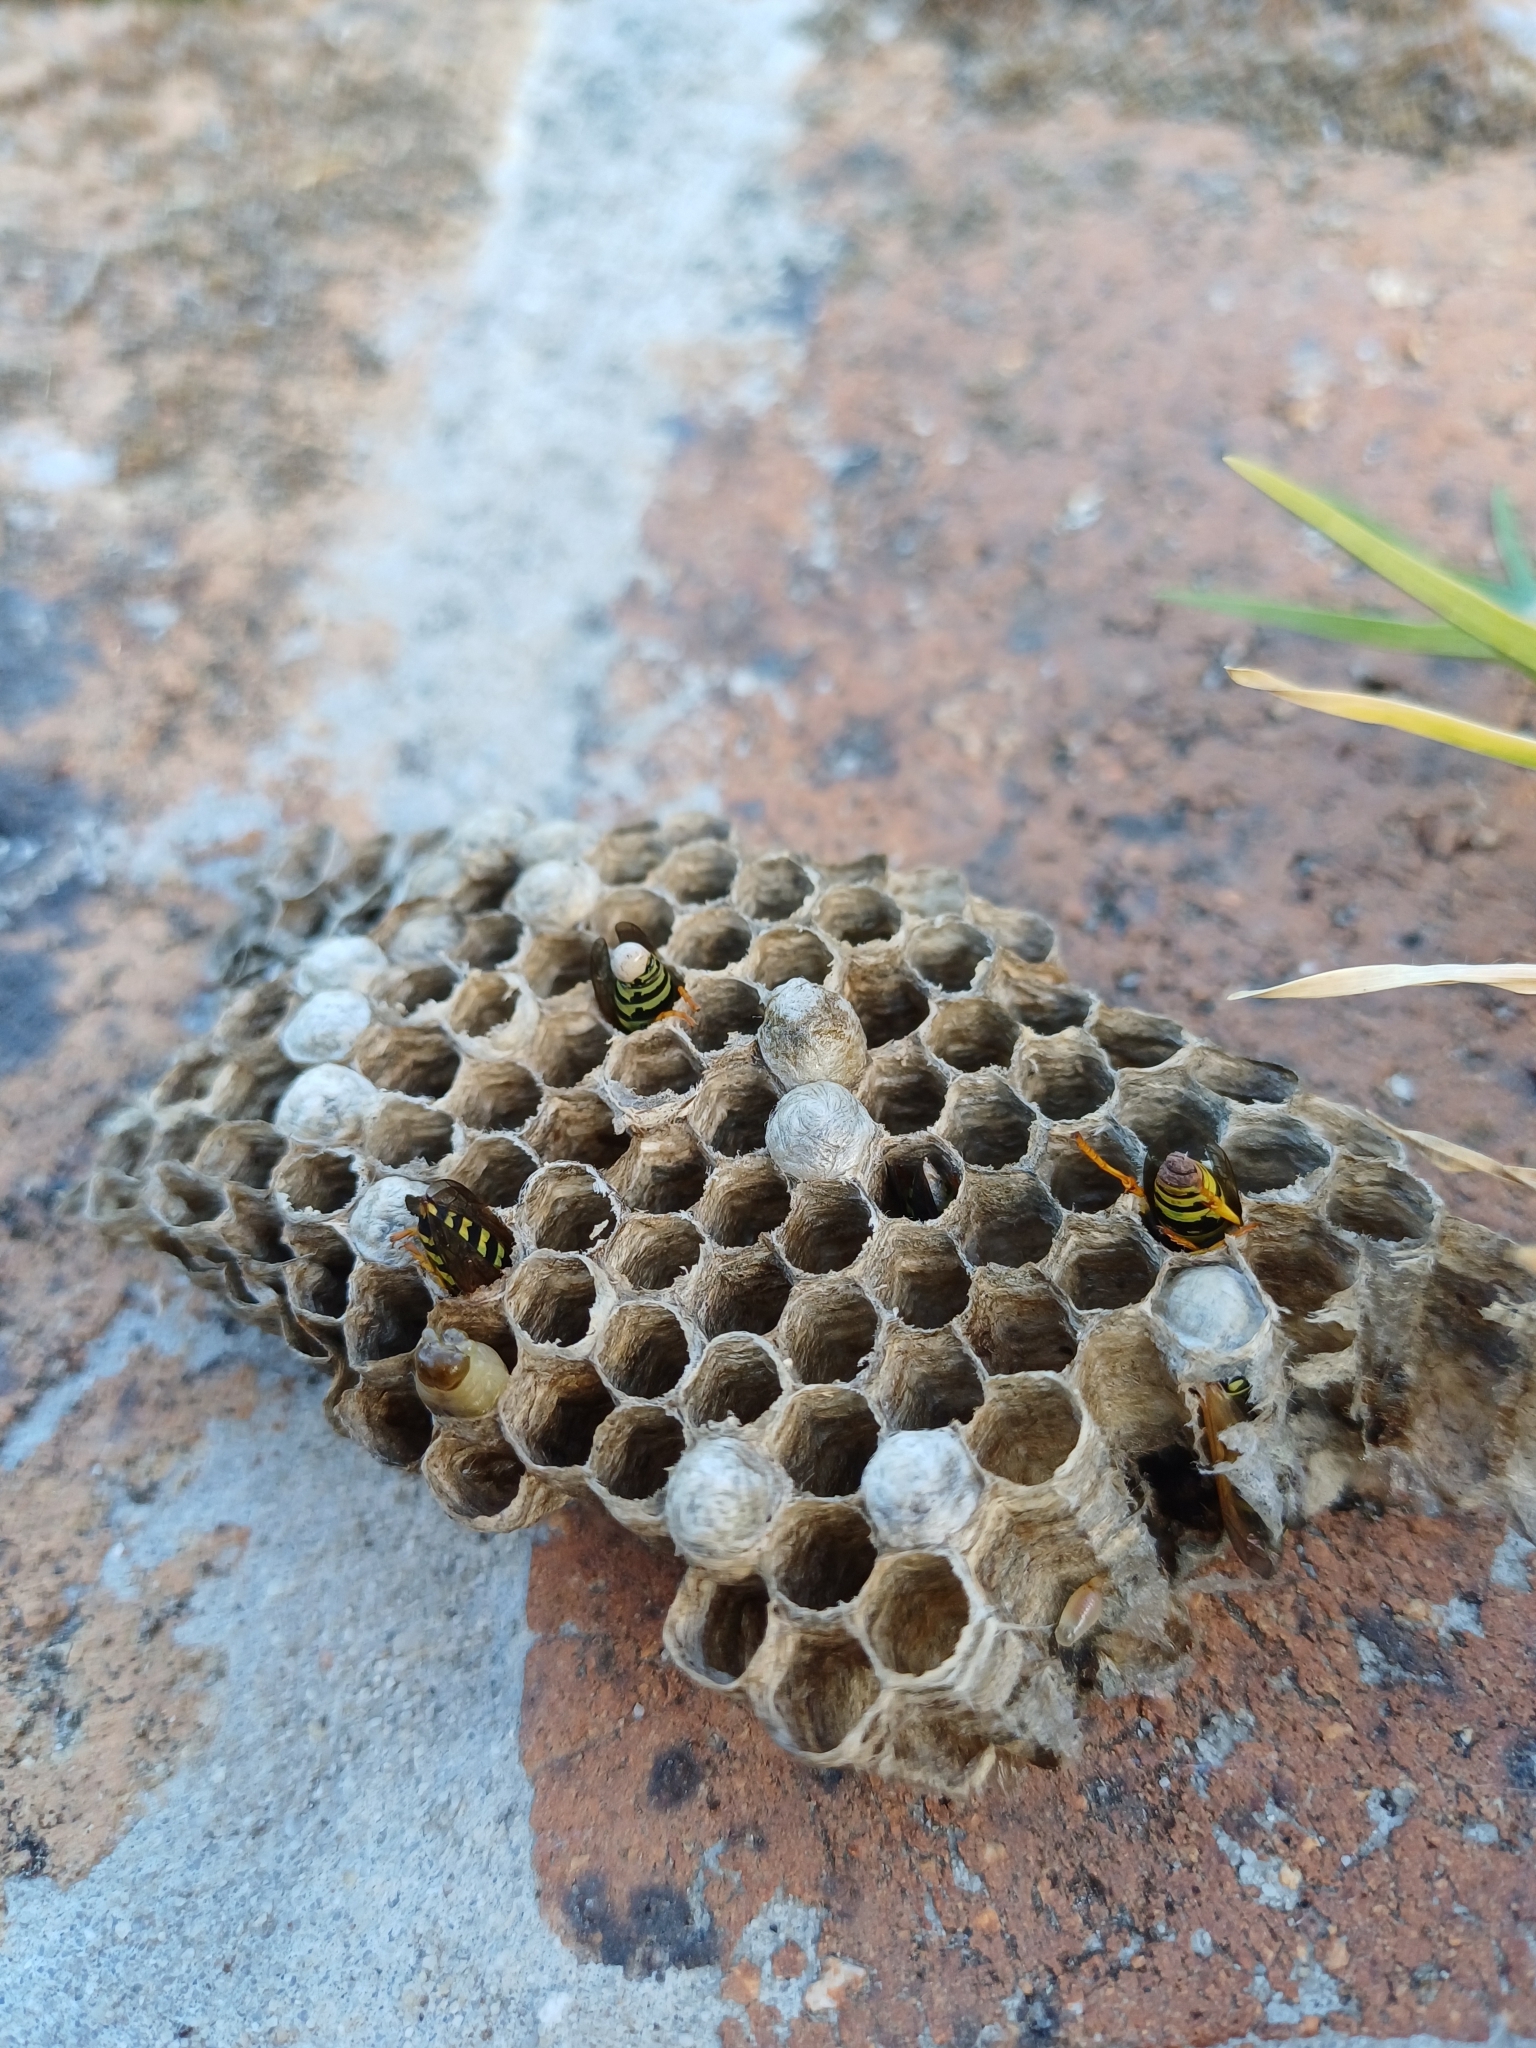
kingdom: Animalia
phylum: Arthropoda
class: Insecta
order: Hymenoptera
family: Eumenidae
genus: Polistes
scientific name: Polistes dominula
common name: Paper wasp
